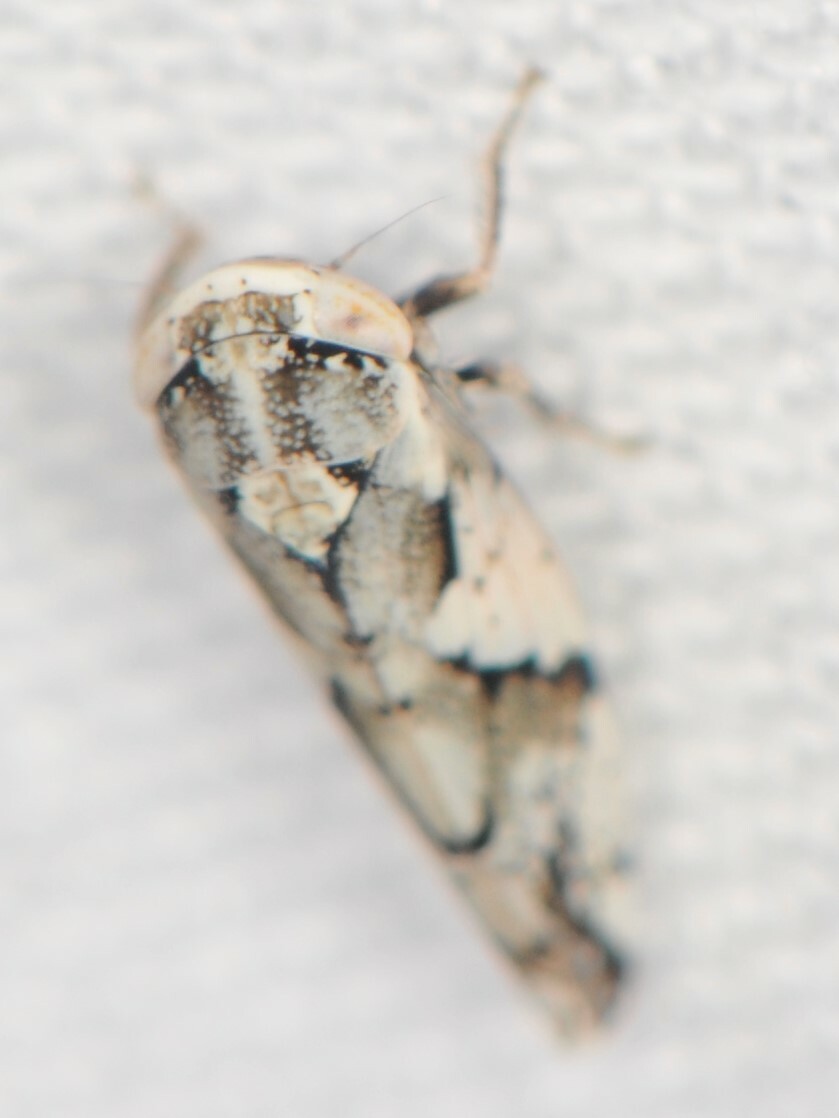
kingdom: Animalia
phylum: Arthropoda
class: Insecta
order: Hemiptera
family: Cicadellidae
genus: Norvellina
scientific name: Norvellina mildredae
